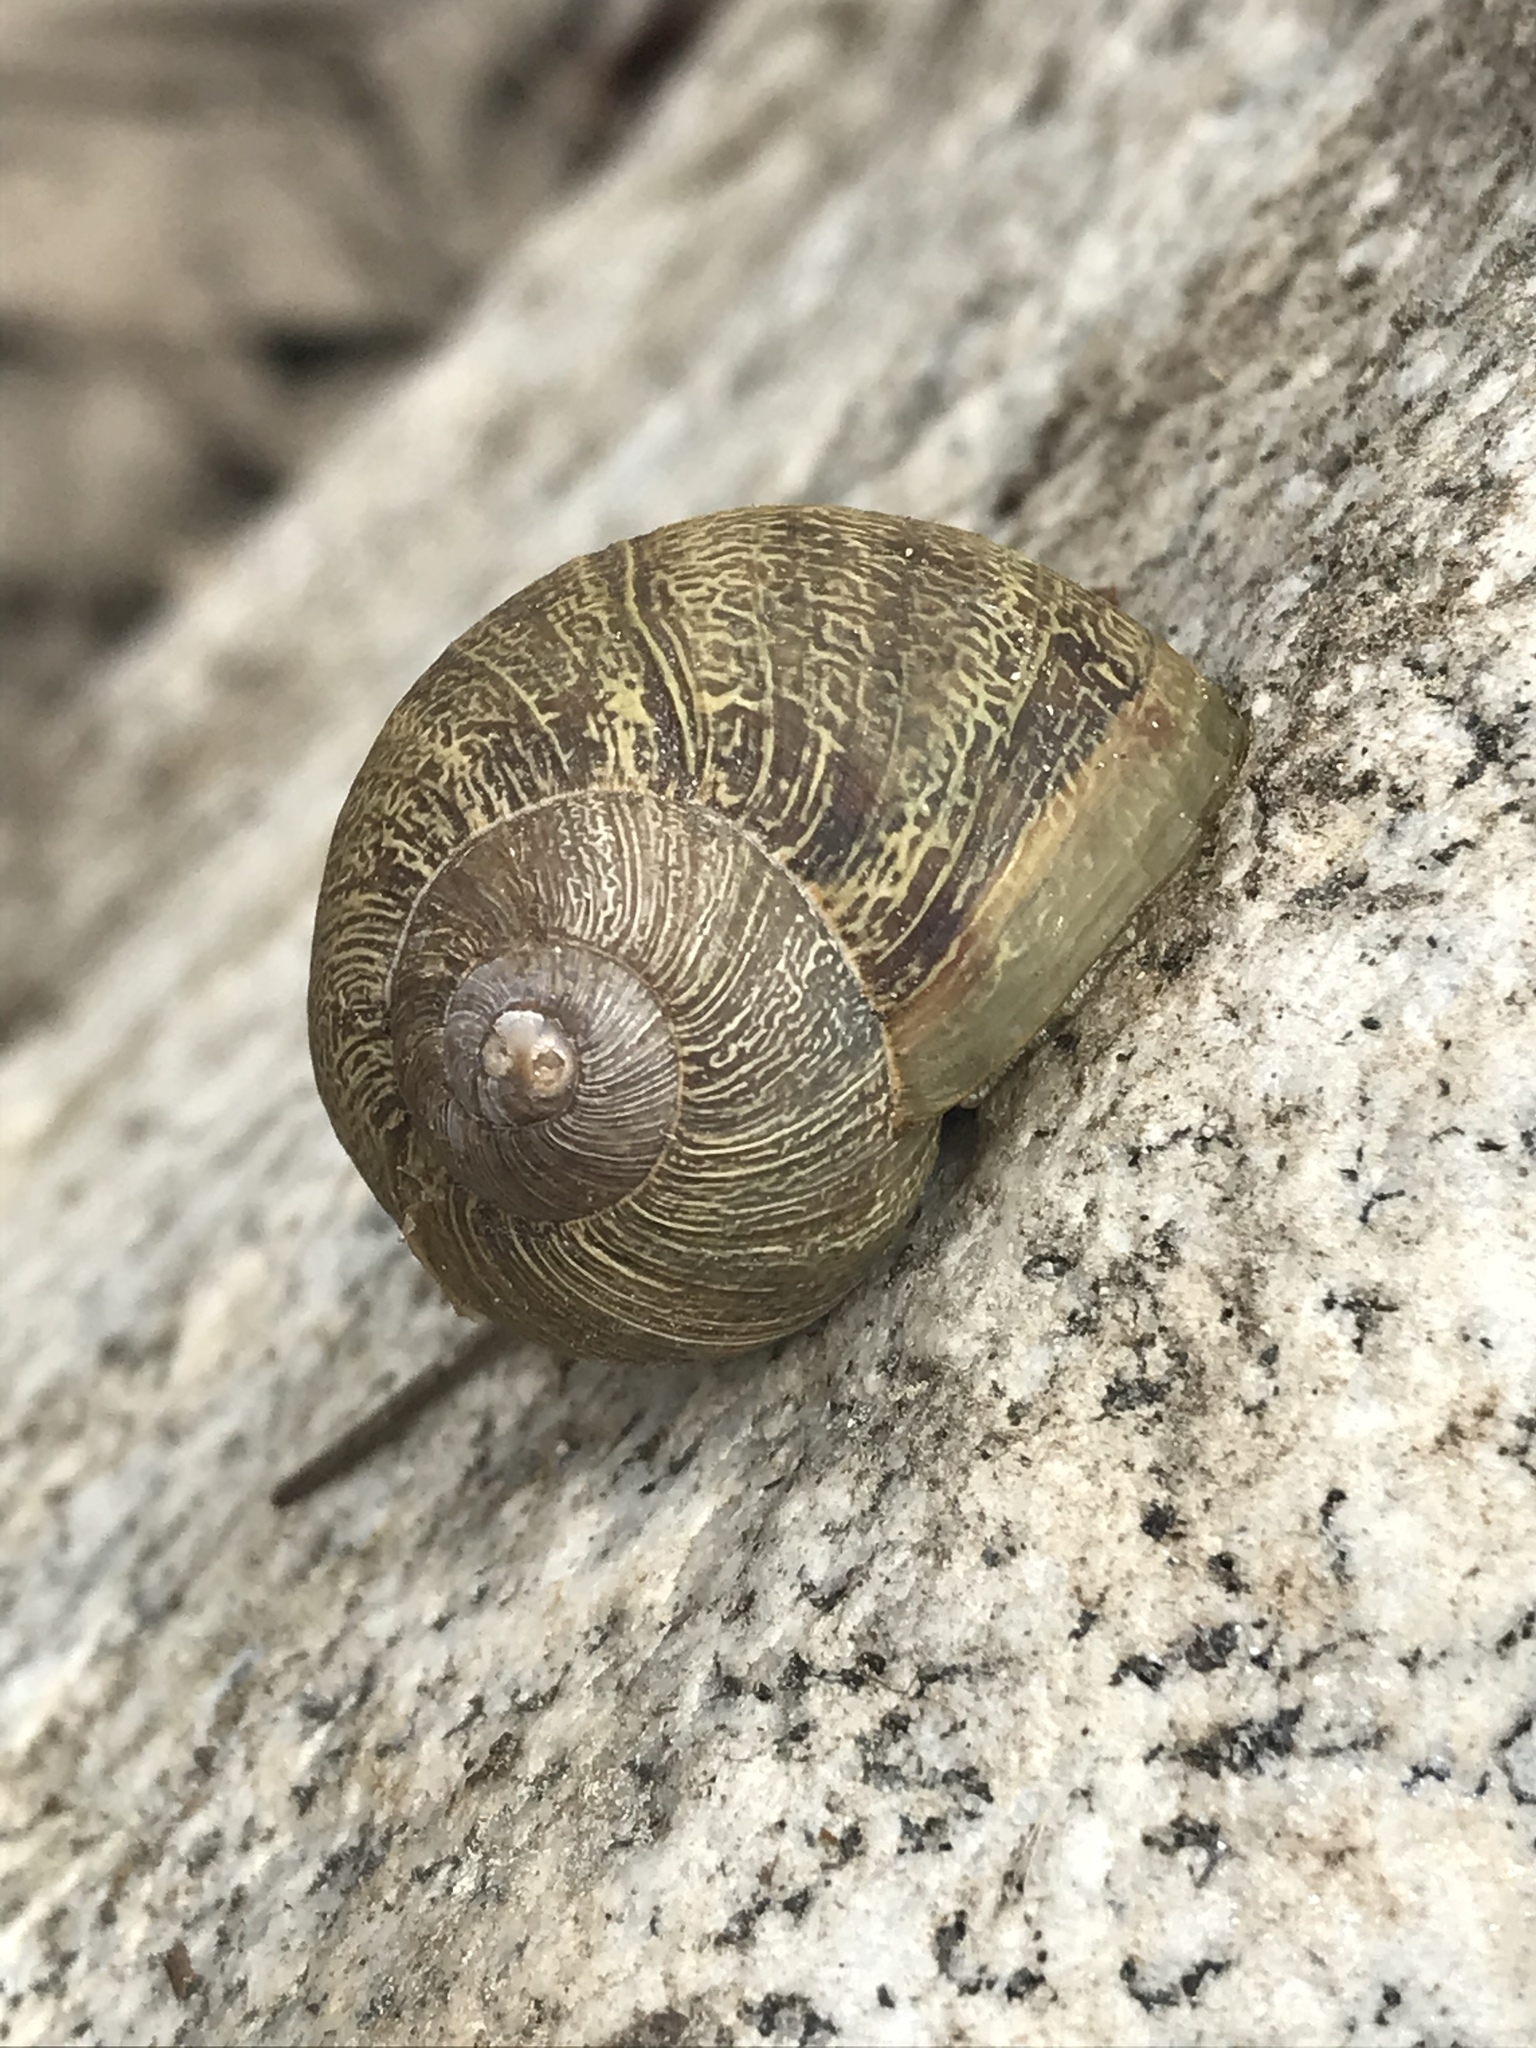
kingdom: Animalia
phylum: Mollusca
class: Gastropoda
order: Stylommatophora
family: Helicidae
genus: Cornu
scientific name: Cornu aspersum
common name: Brown garden snail
